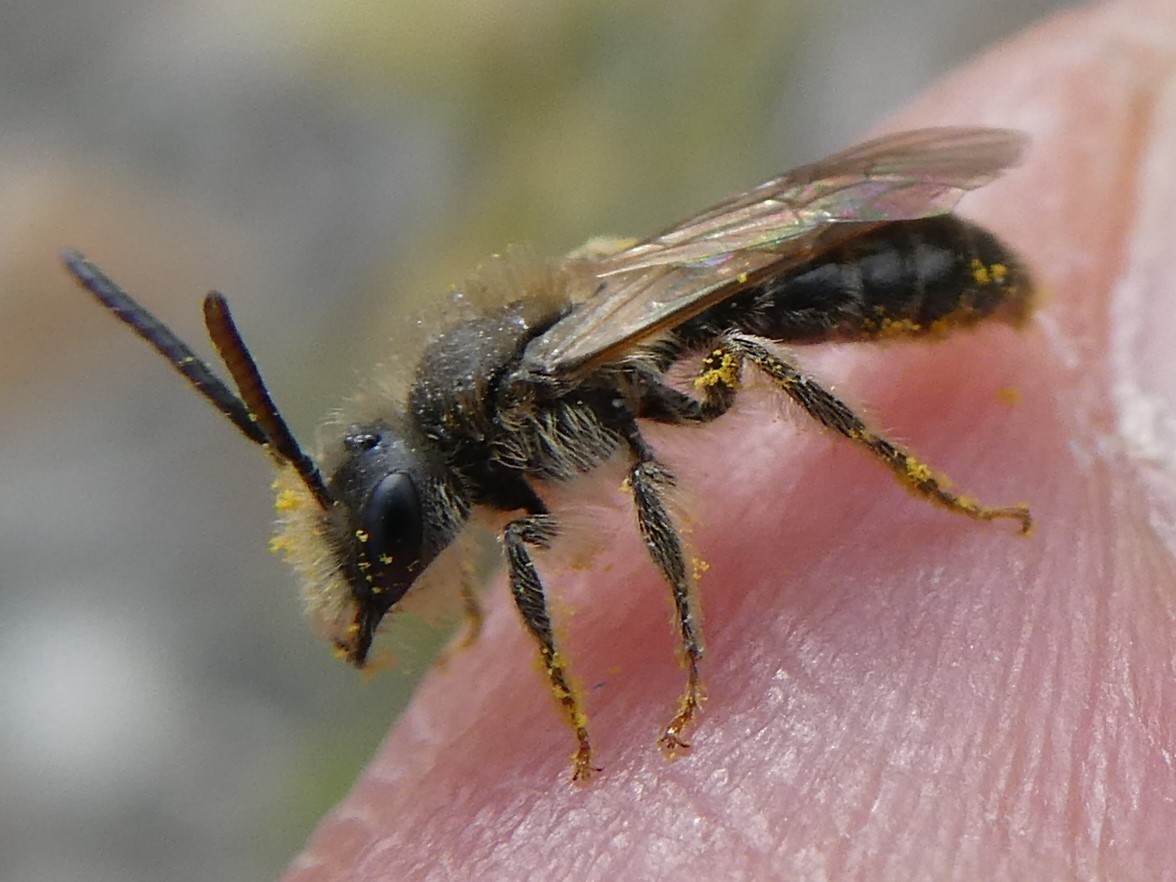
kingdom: Animalia
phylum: Arthropoda
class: Insecta
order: Hymenoptera
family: Andrenidae
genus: Andrena
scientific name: Andrena miserabilis
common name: Miserable mining bee
